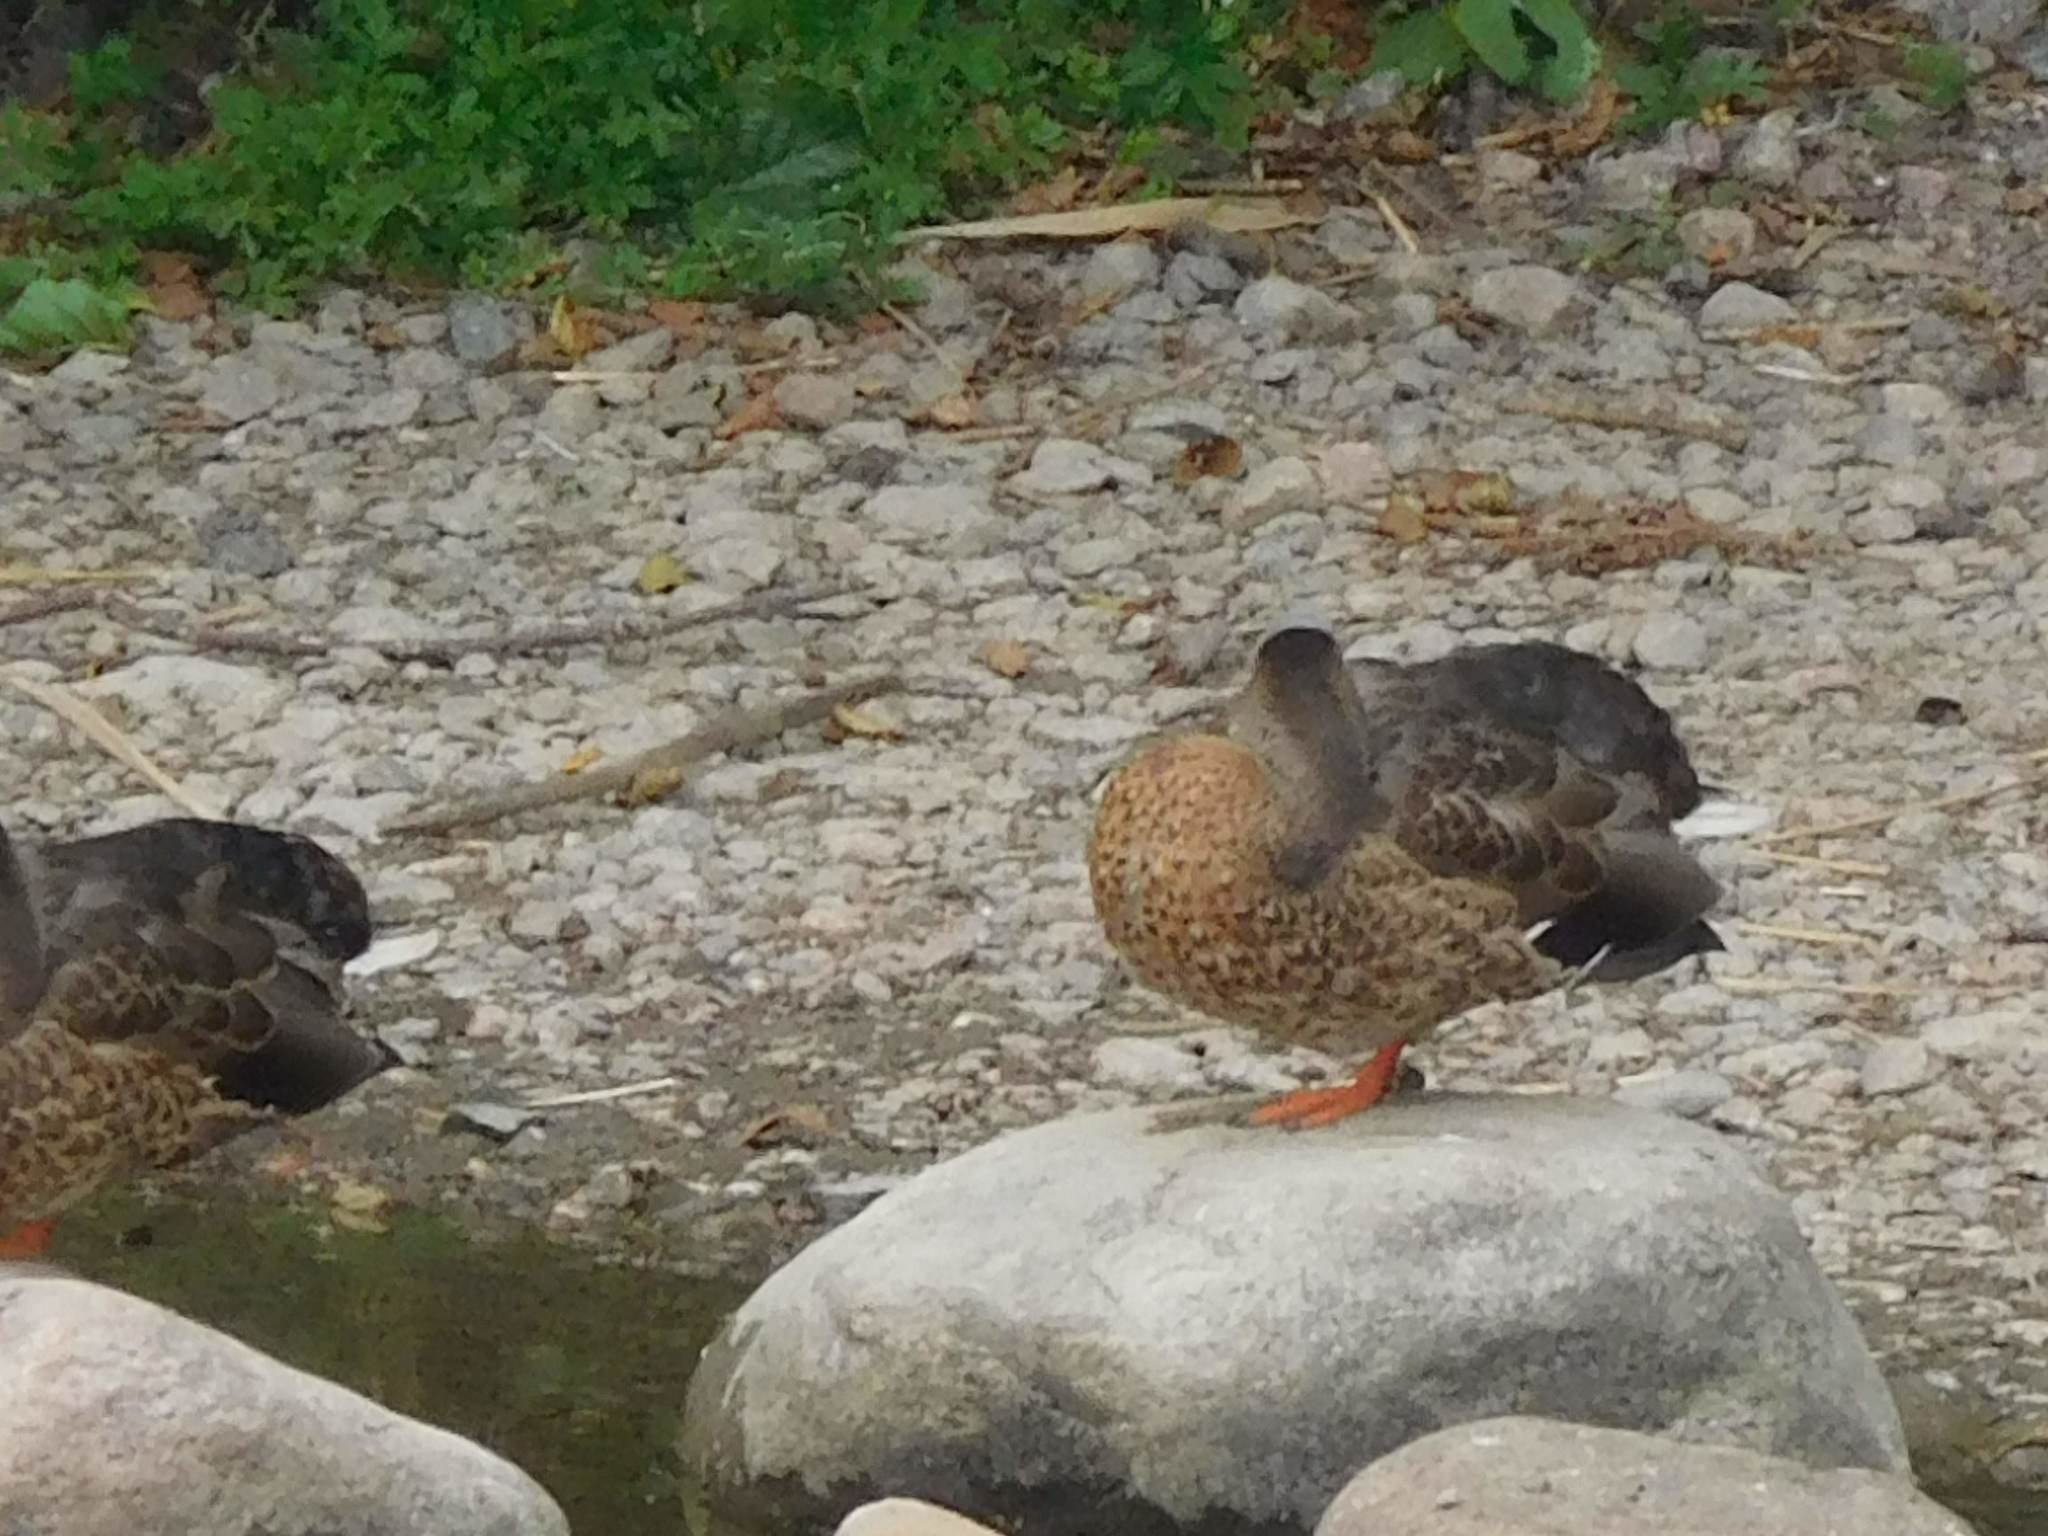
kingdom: Animalia
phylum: Chordata
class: Aves
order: Anseriformes
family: Anatidae
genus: Anas
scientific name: Anas platyrhynchos
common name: Mallard
